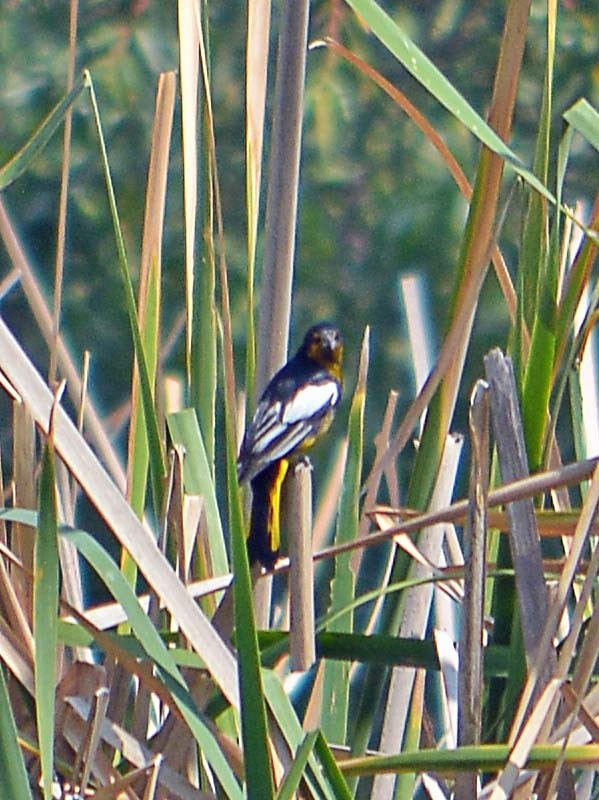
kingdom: Animalia
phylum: Chordata
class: Aves
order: Passeriformes
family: Icteridae
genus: Icterus
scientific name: Icterus abeillei
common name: Black-backed oriole
